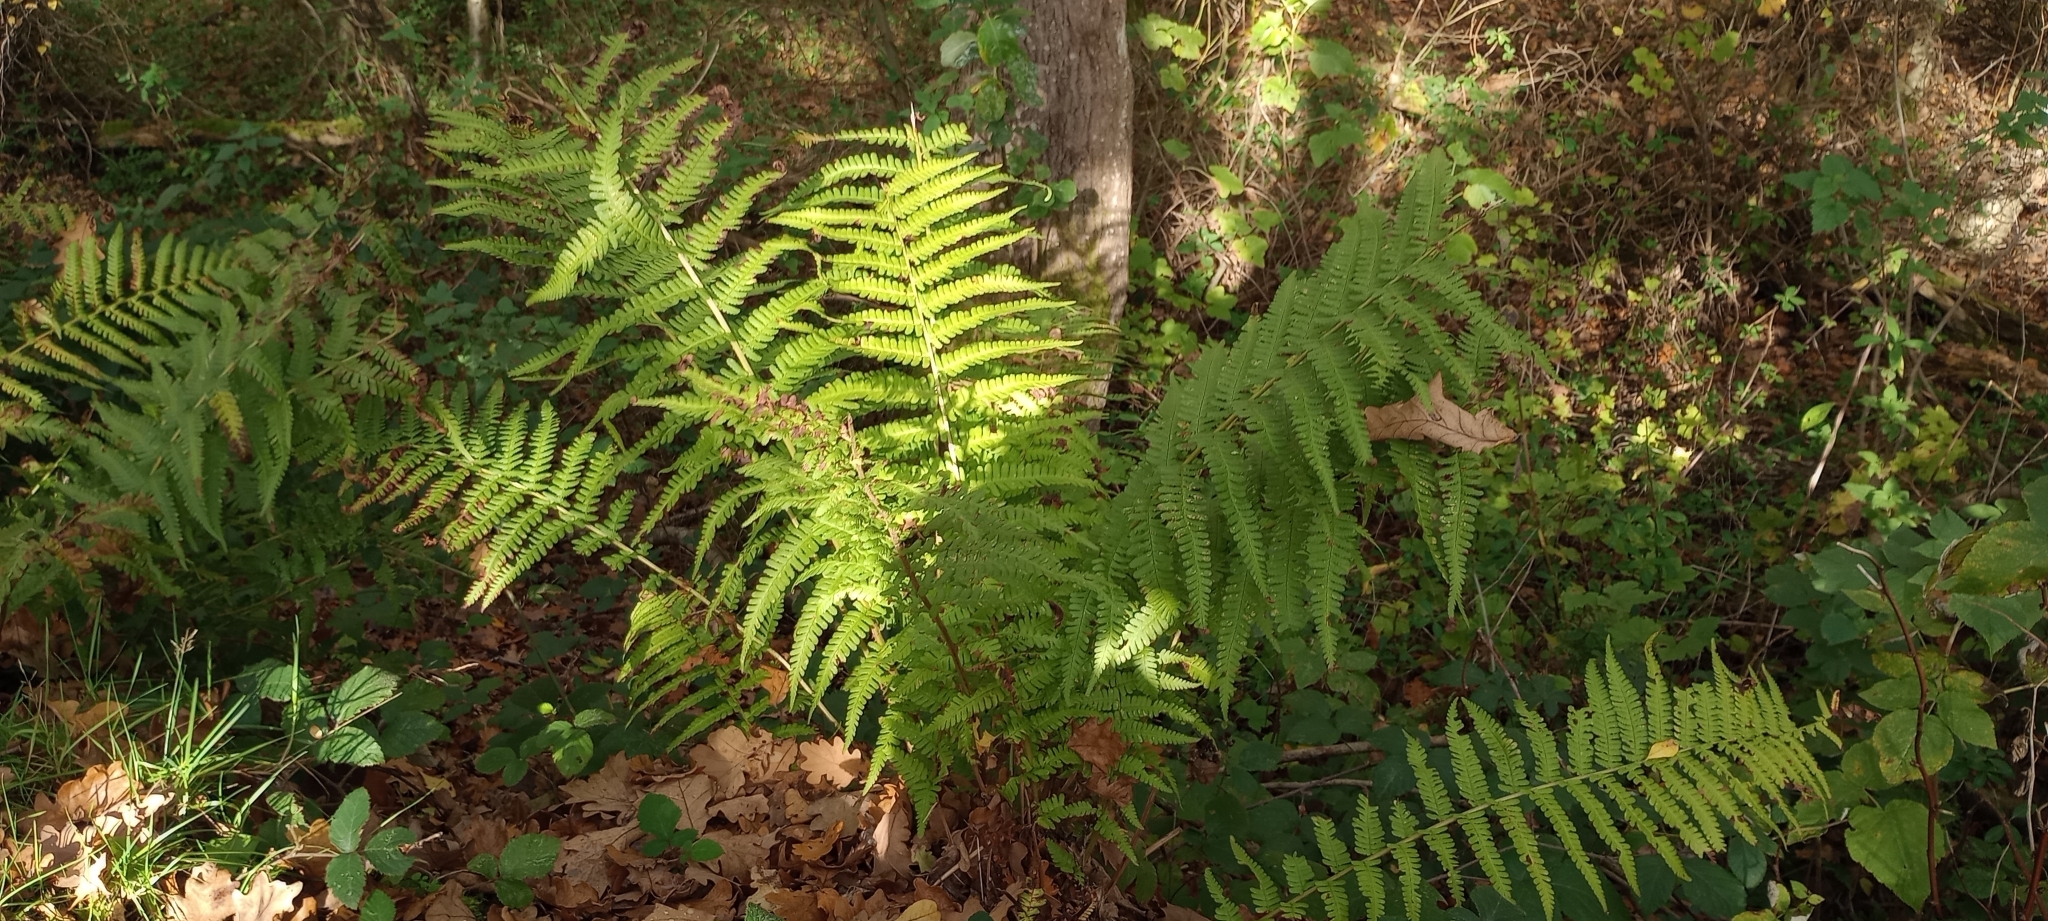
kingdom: Plantae
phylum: Tracheophyta
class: Polypodiopsida
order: Polypodiales
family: Dryopteridaceae
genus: Dryopteris
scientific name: Dryopteris filix-mas
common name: Male fern
